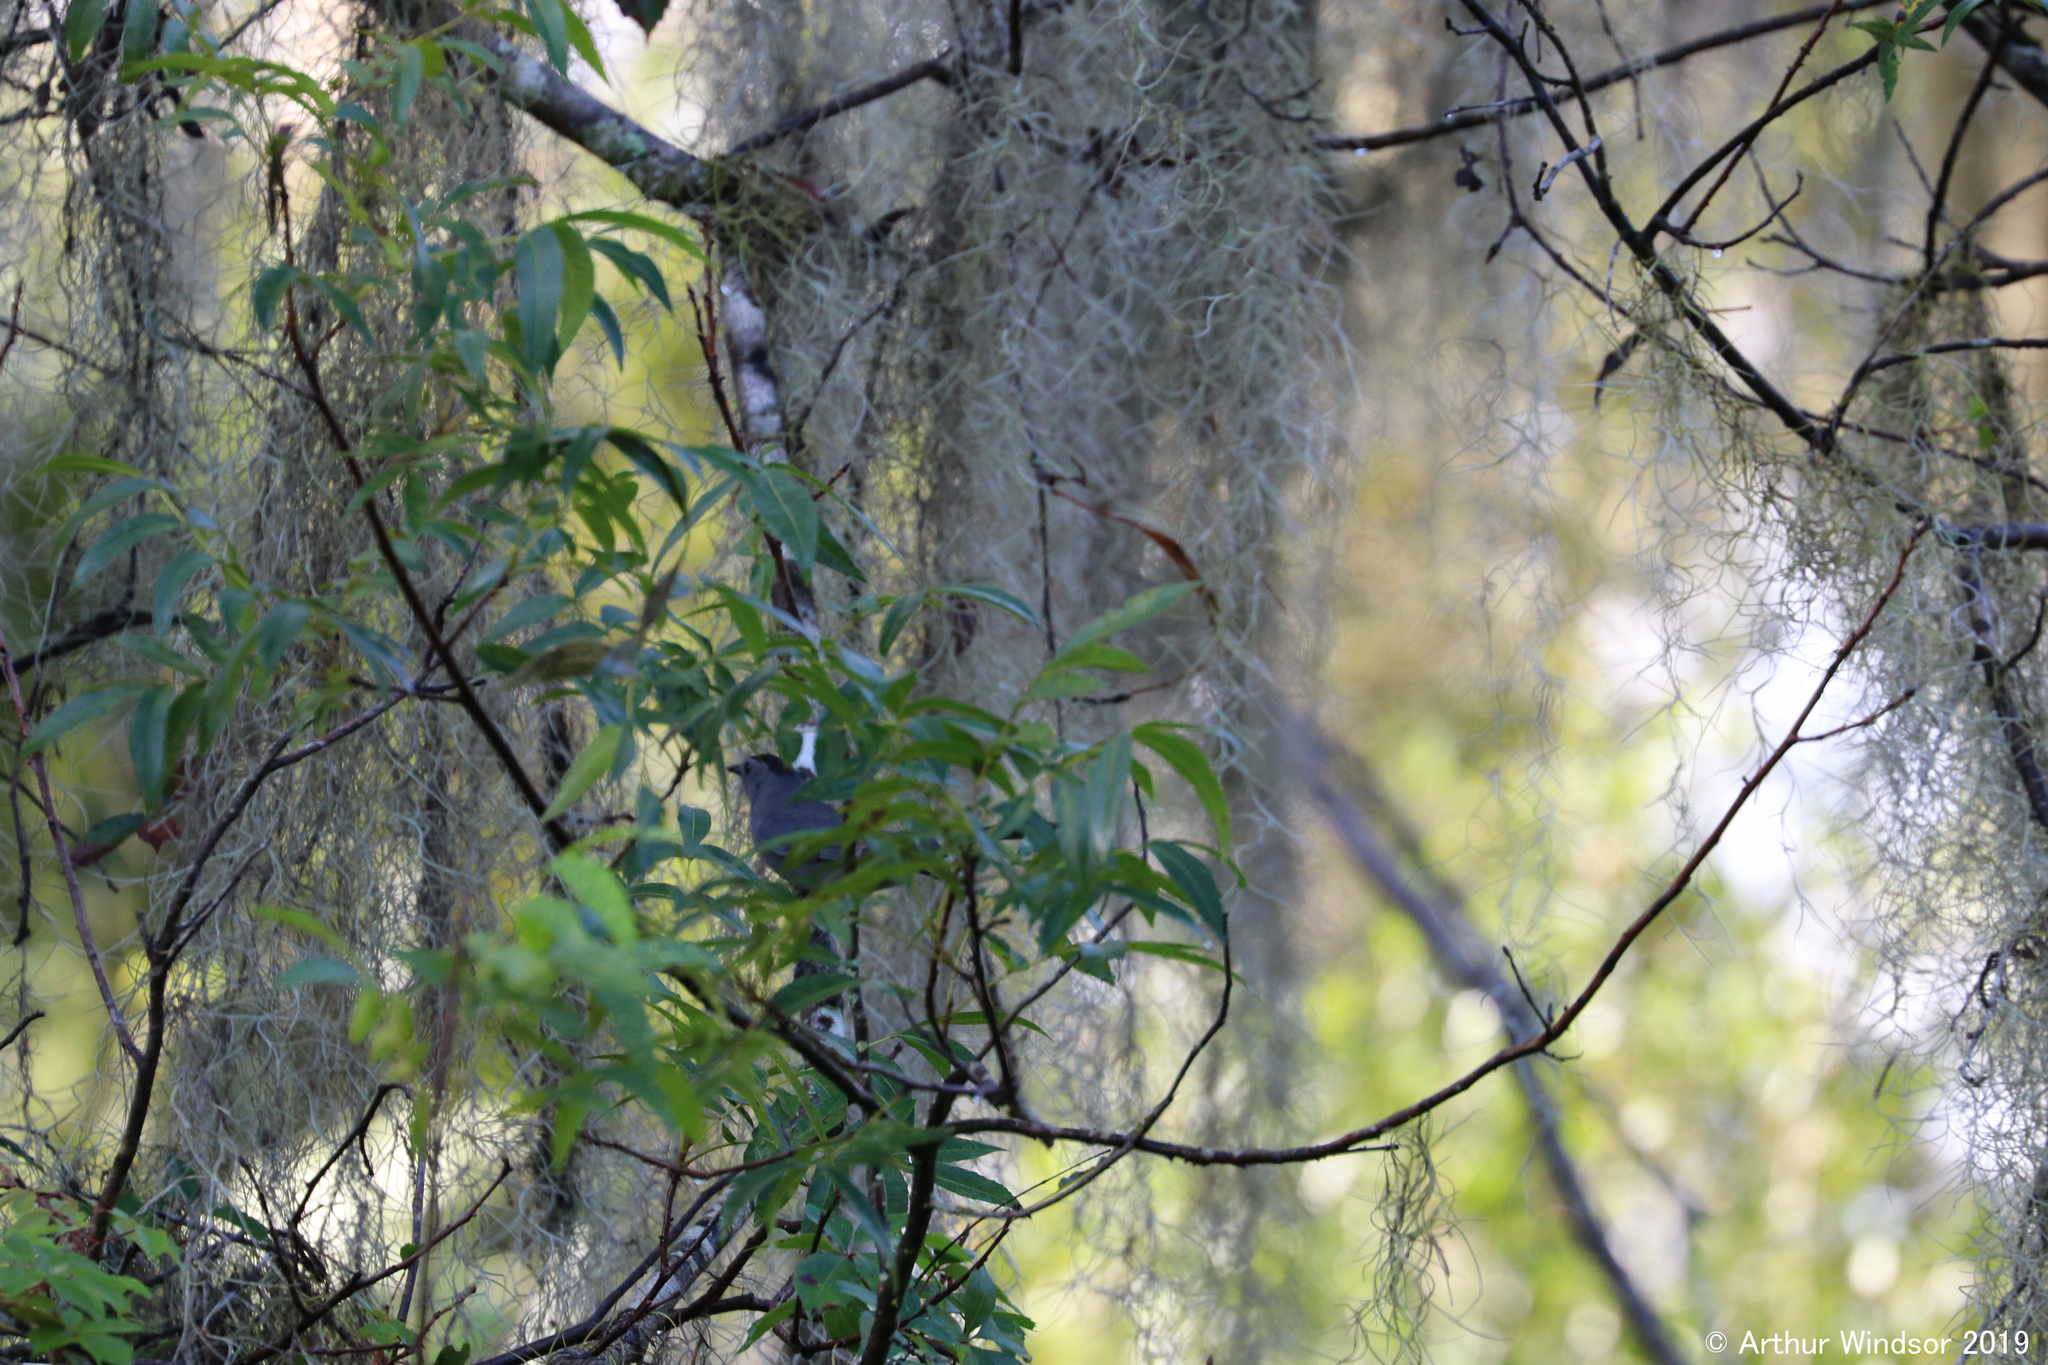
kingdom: Animalia
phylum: Chordata
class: Aves
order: Passeriformes
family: Mimidae
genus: Dumetella
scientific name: Dumetella carolinensis
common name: Gray catbird
